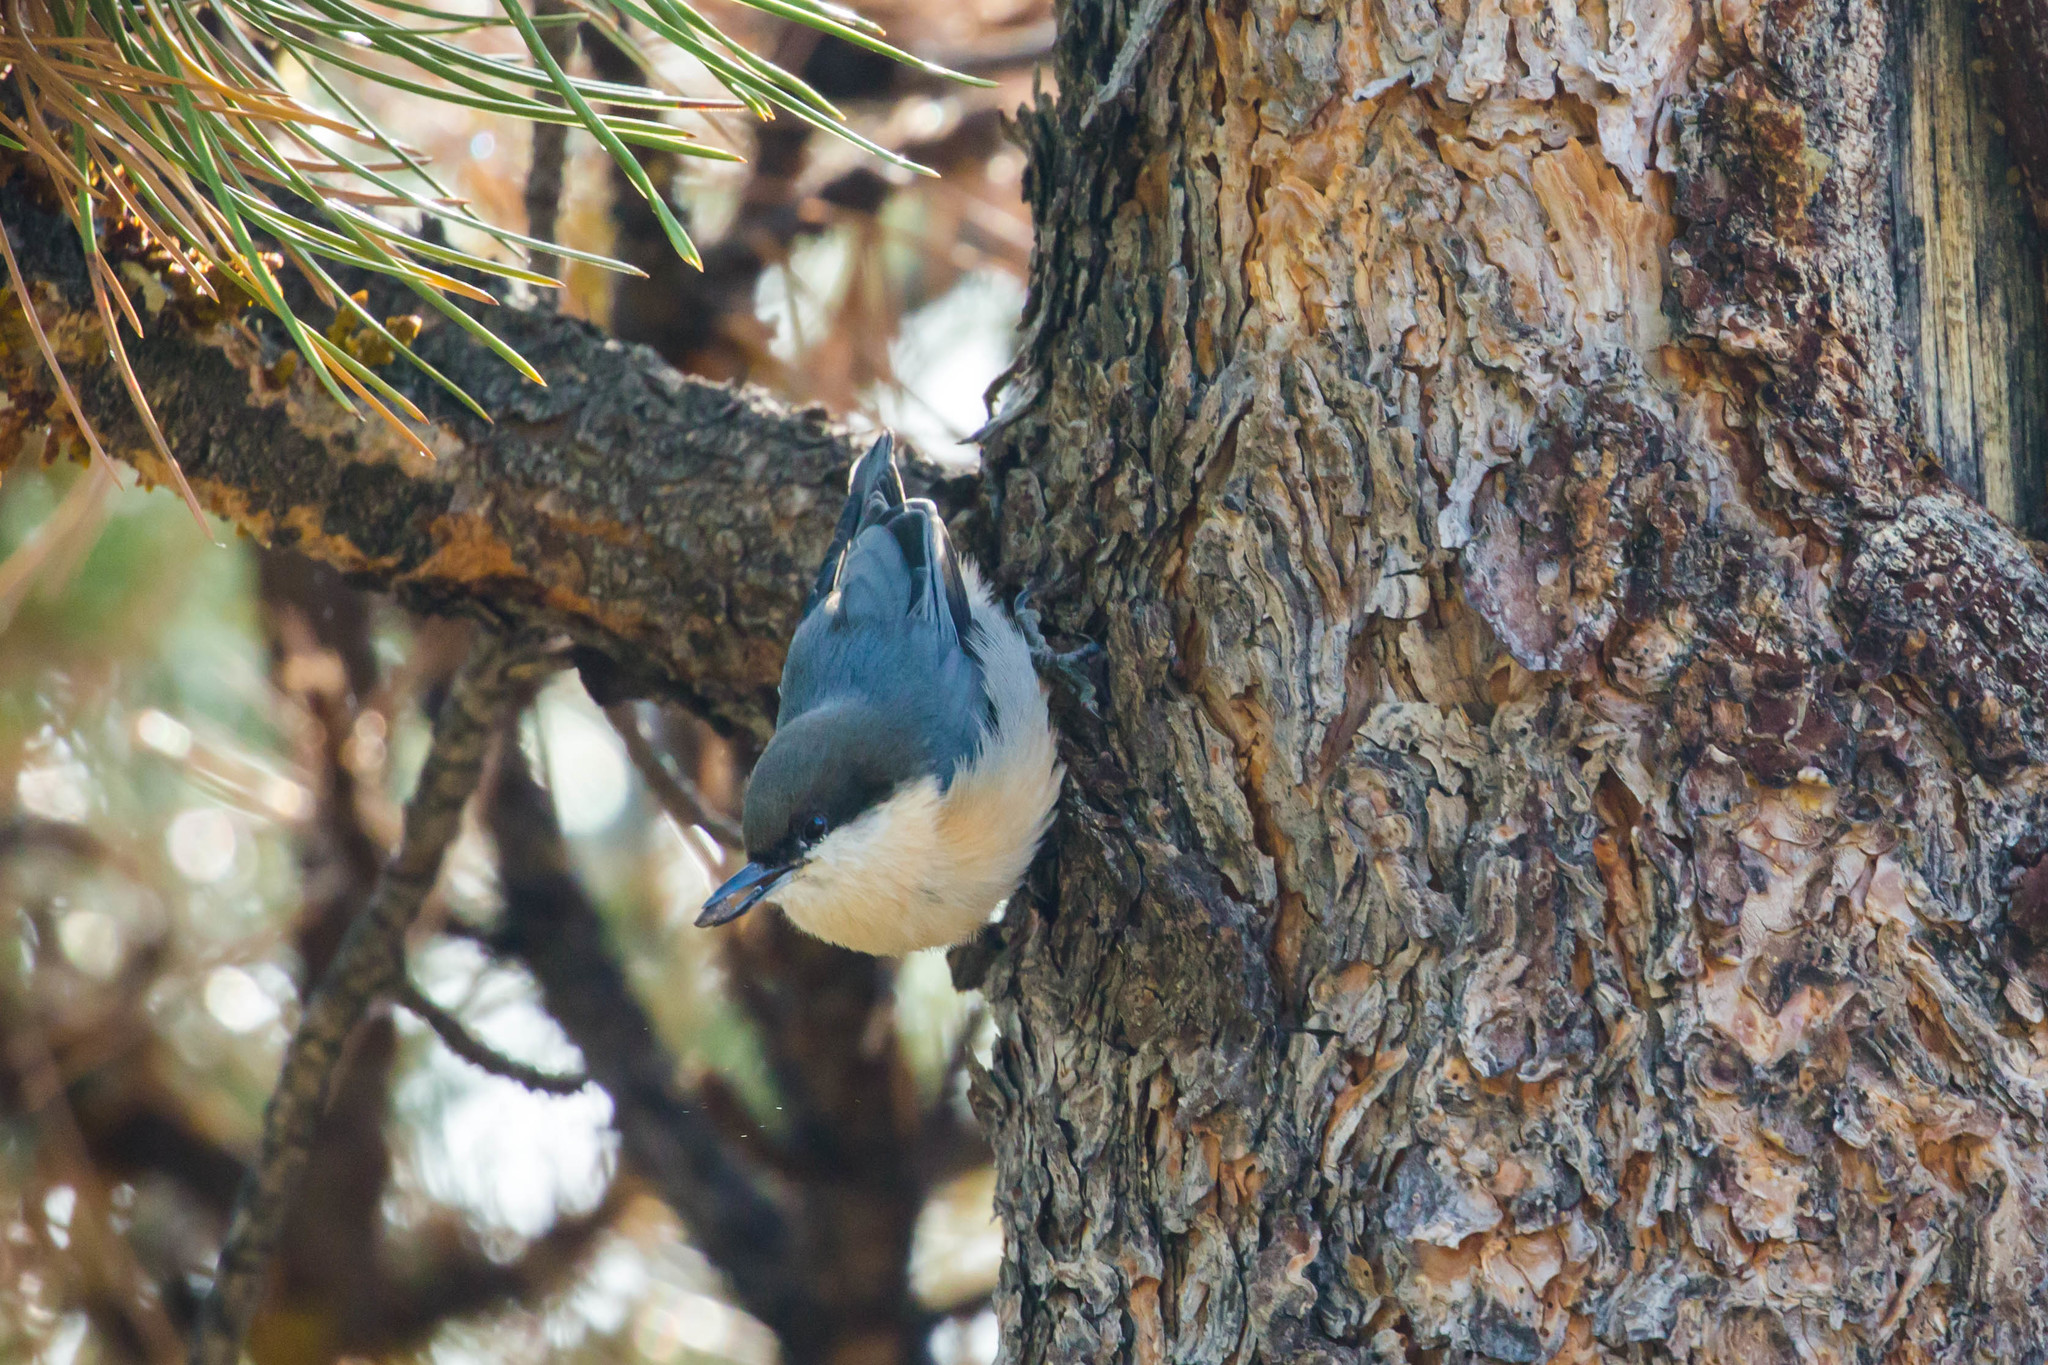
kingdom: Animalia
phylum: Chordata
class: Aves
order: Passeriformes
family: Sittidae
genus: Sitta
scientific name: Sitta pygmaea
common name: Pygmy nuthatch
